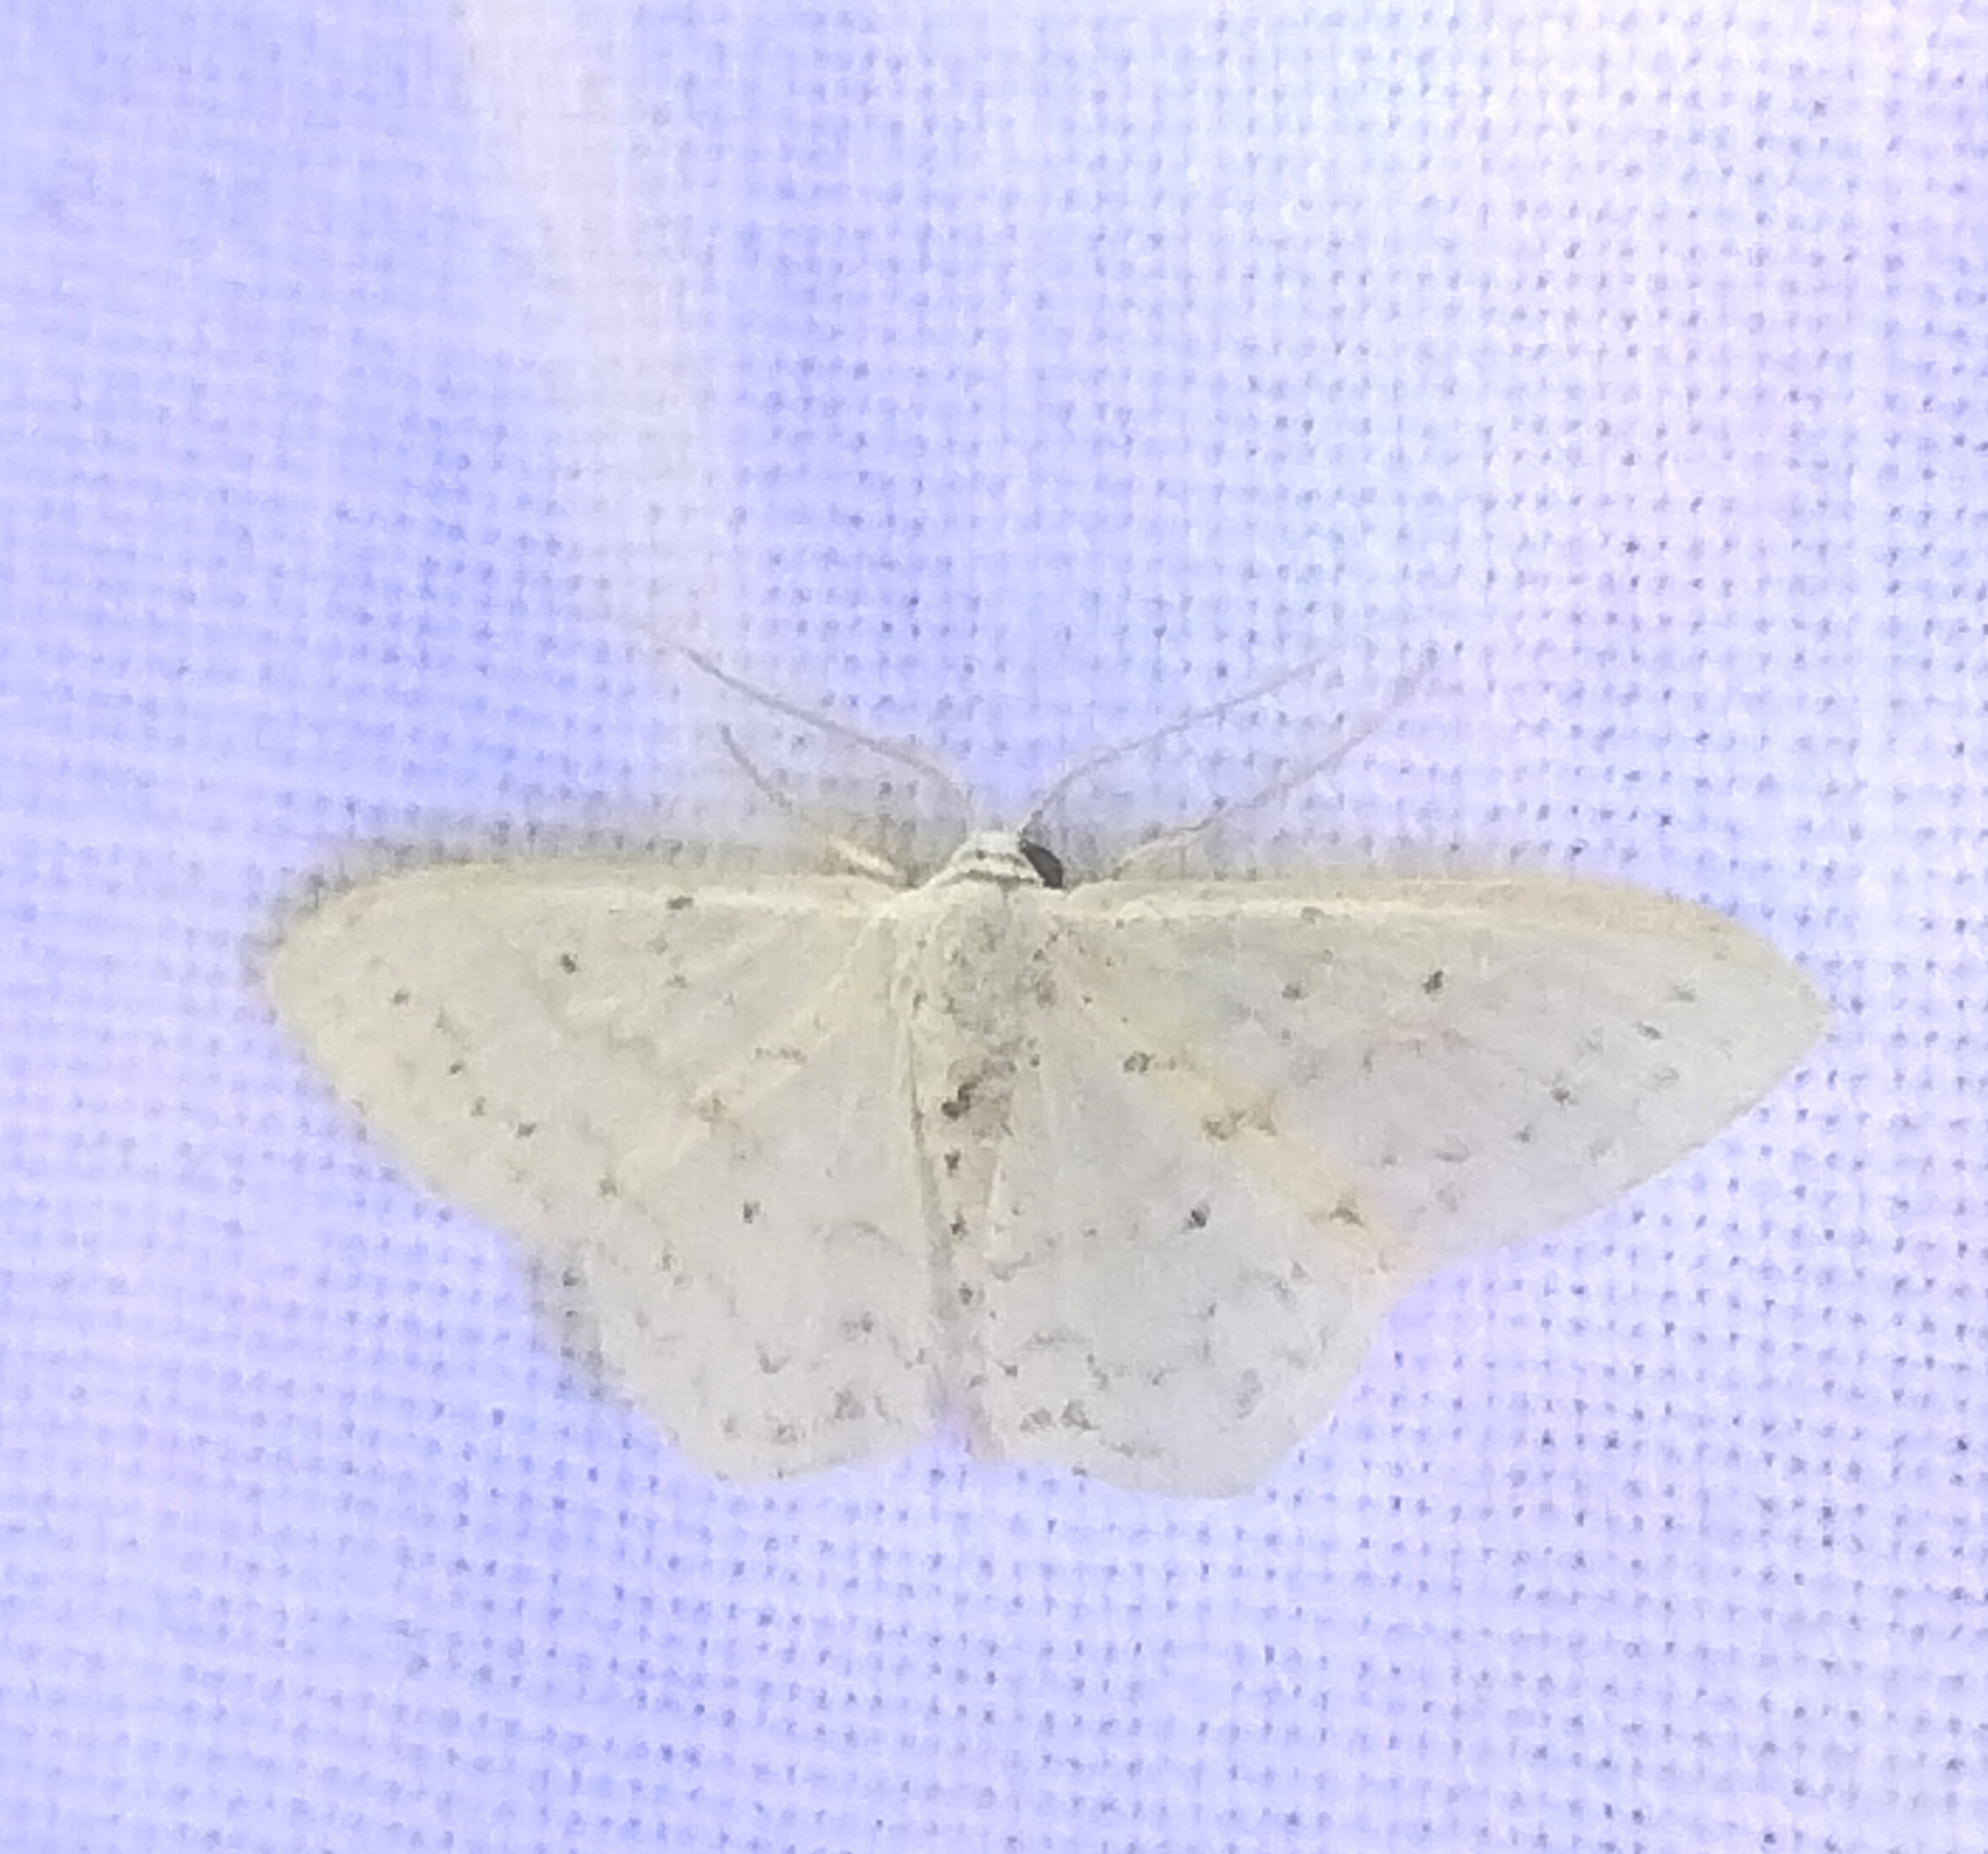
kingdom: Animalia
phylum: Arthropoda
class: Insecta
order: Lepidoptera
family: Geometridae
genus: Idaea
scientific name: Idaea tacturata
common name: Dot-lined wave
